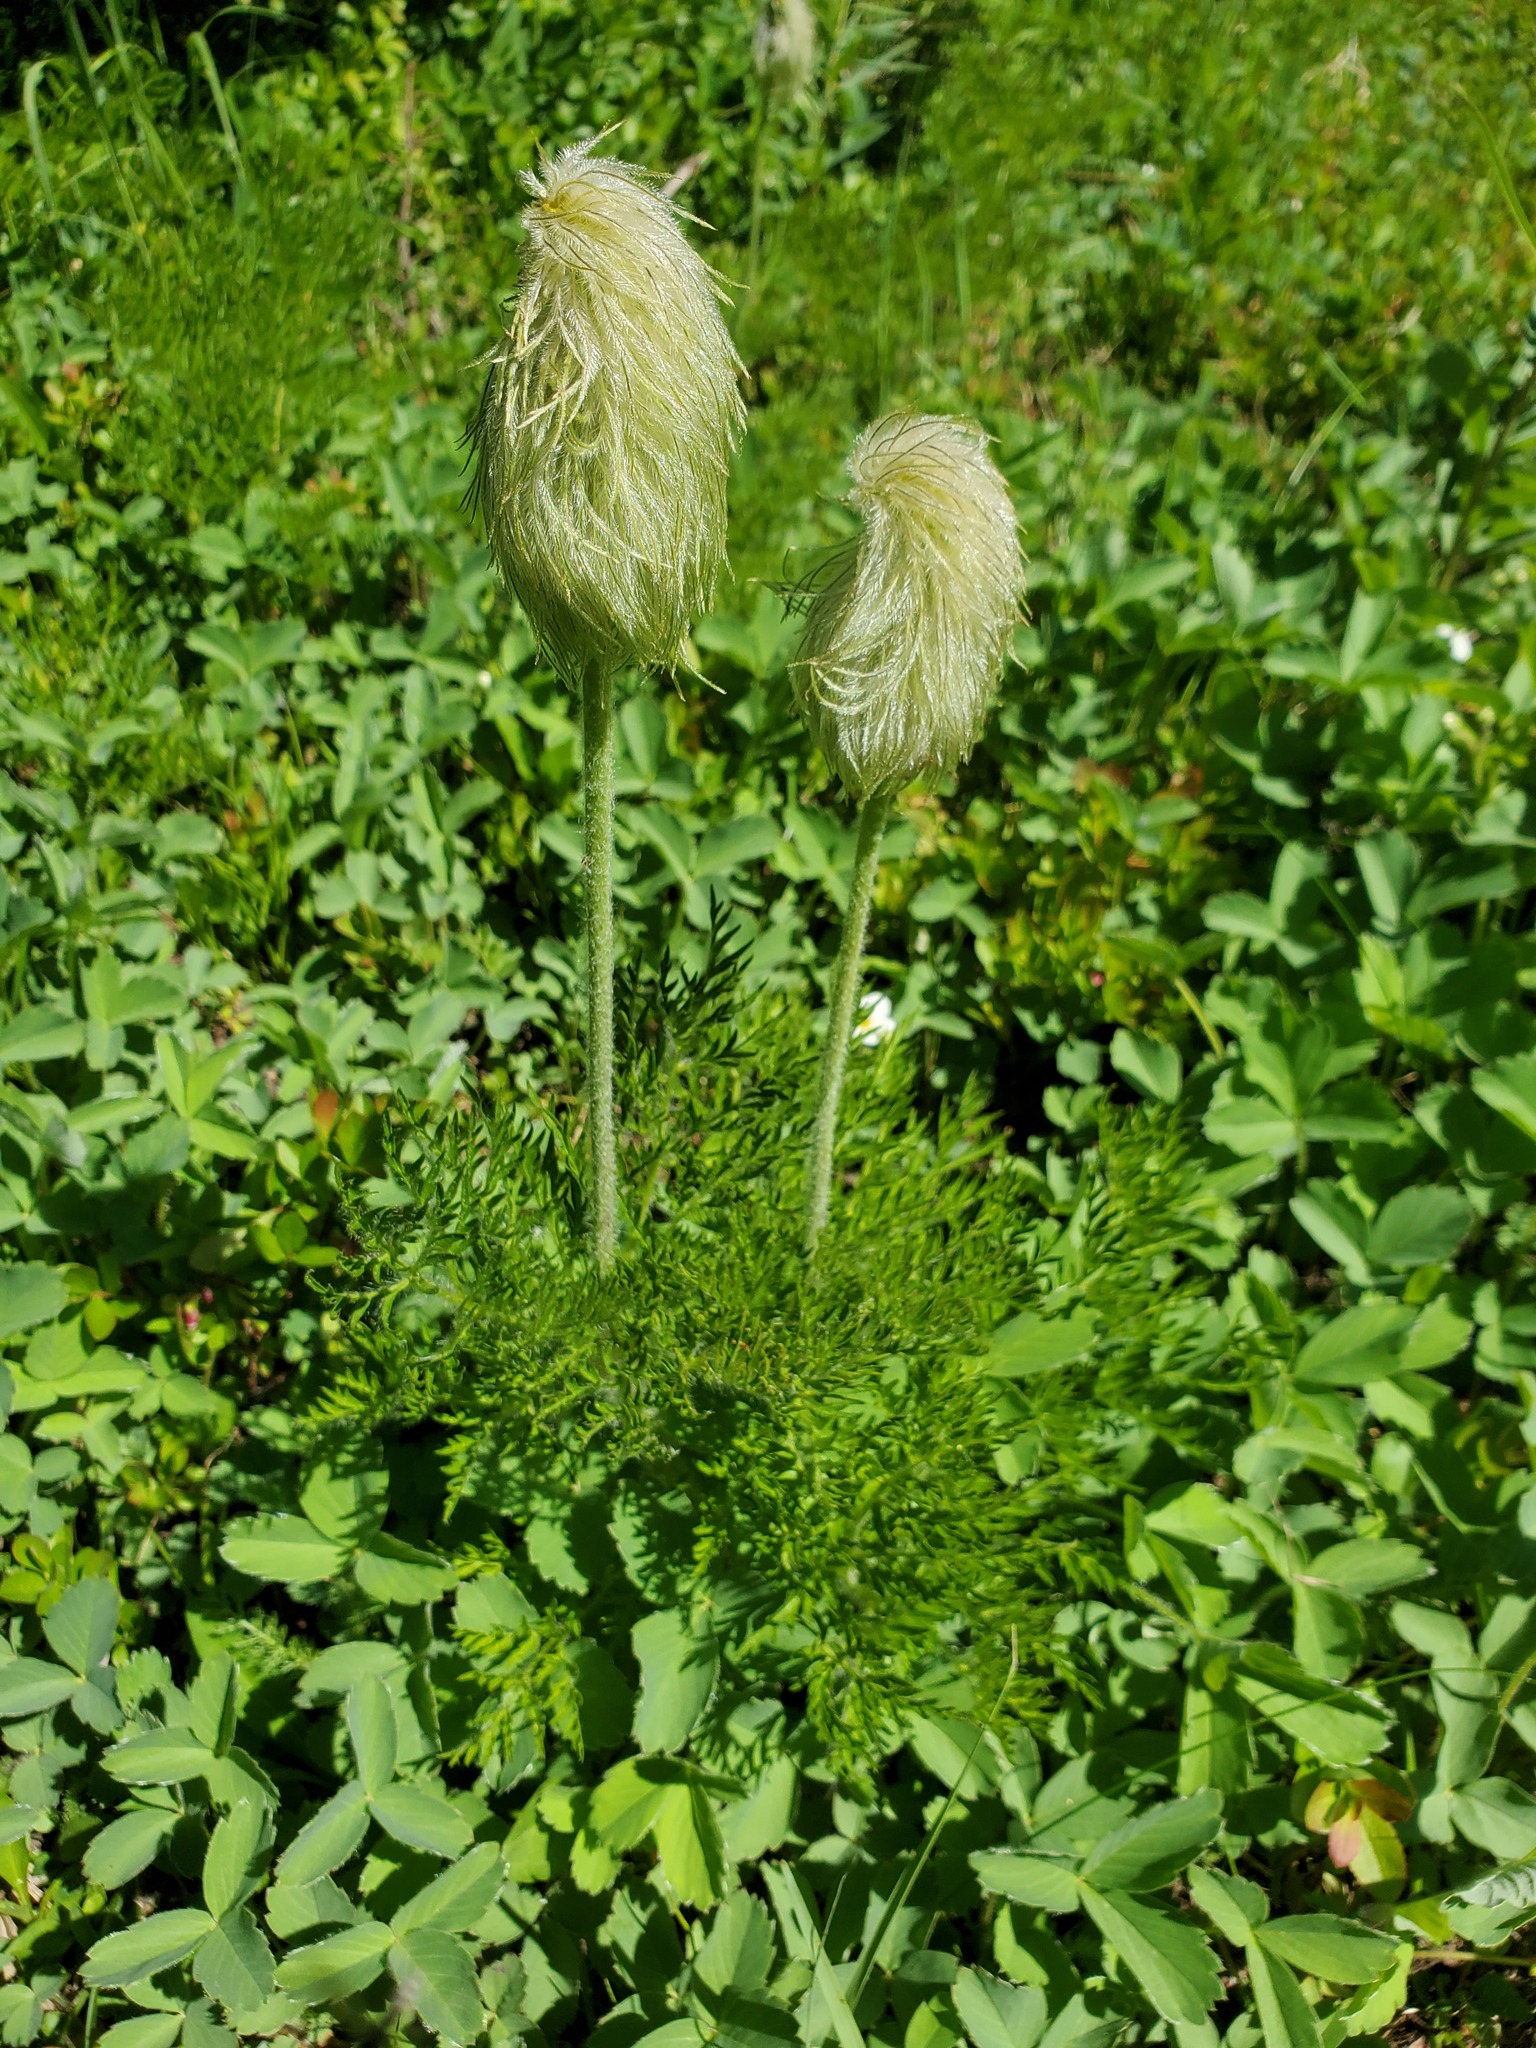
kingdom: Plantae
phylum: Tracheophyta
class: Magnoliopsida
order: Ranunculales
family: Ranunculaceae
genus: Pulsatilla
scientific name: Pulsatilla occidentalis
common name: Mountain pasqueflower
